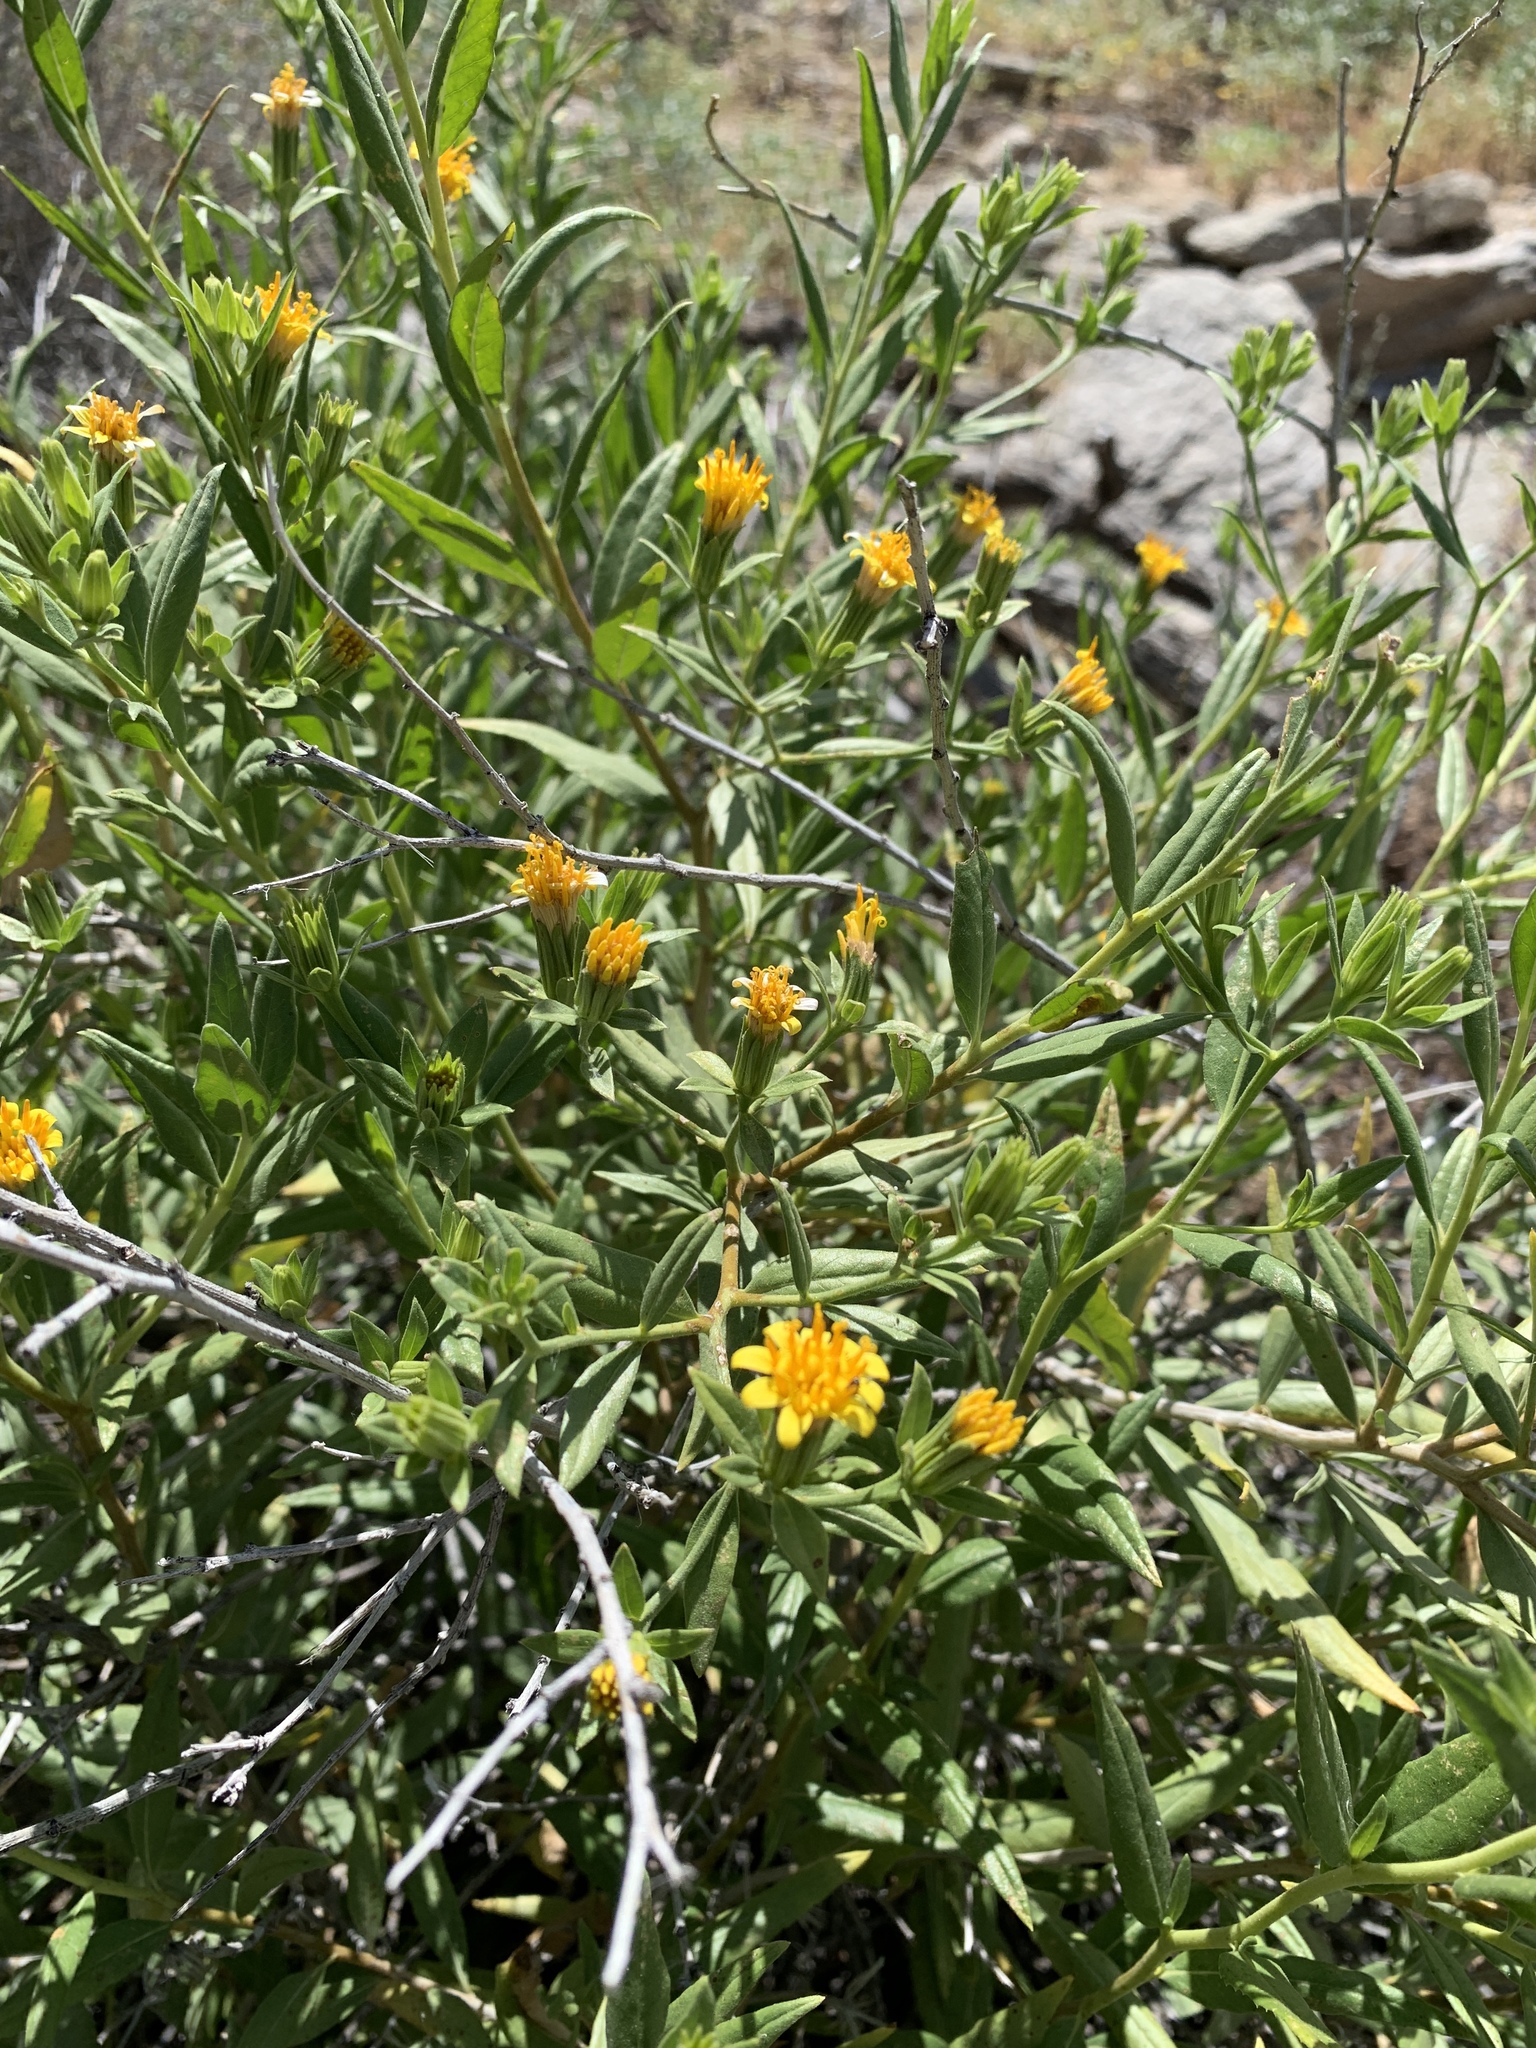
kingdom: Plantae
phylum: Tracheophyta
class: Magnoliopsida
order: Asterales
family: Asteraceae
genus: Trixis
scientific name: Trixis californica
